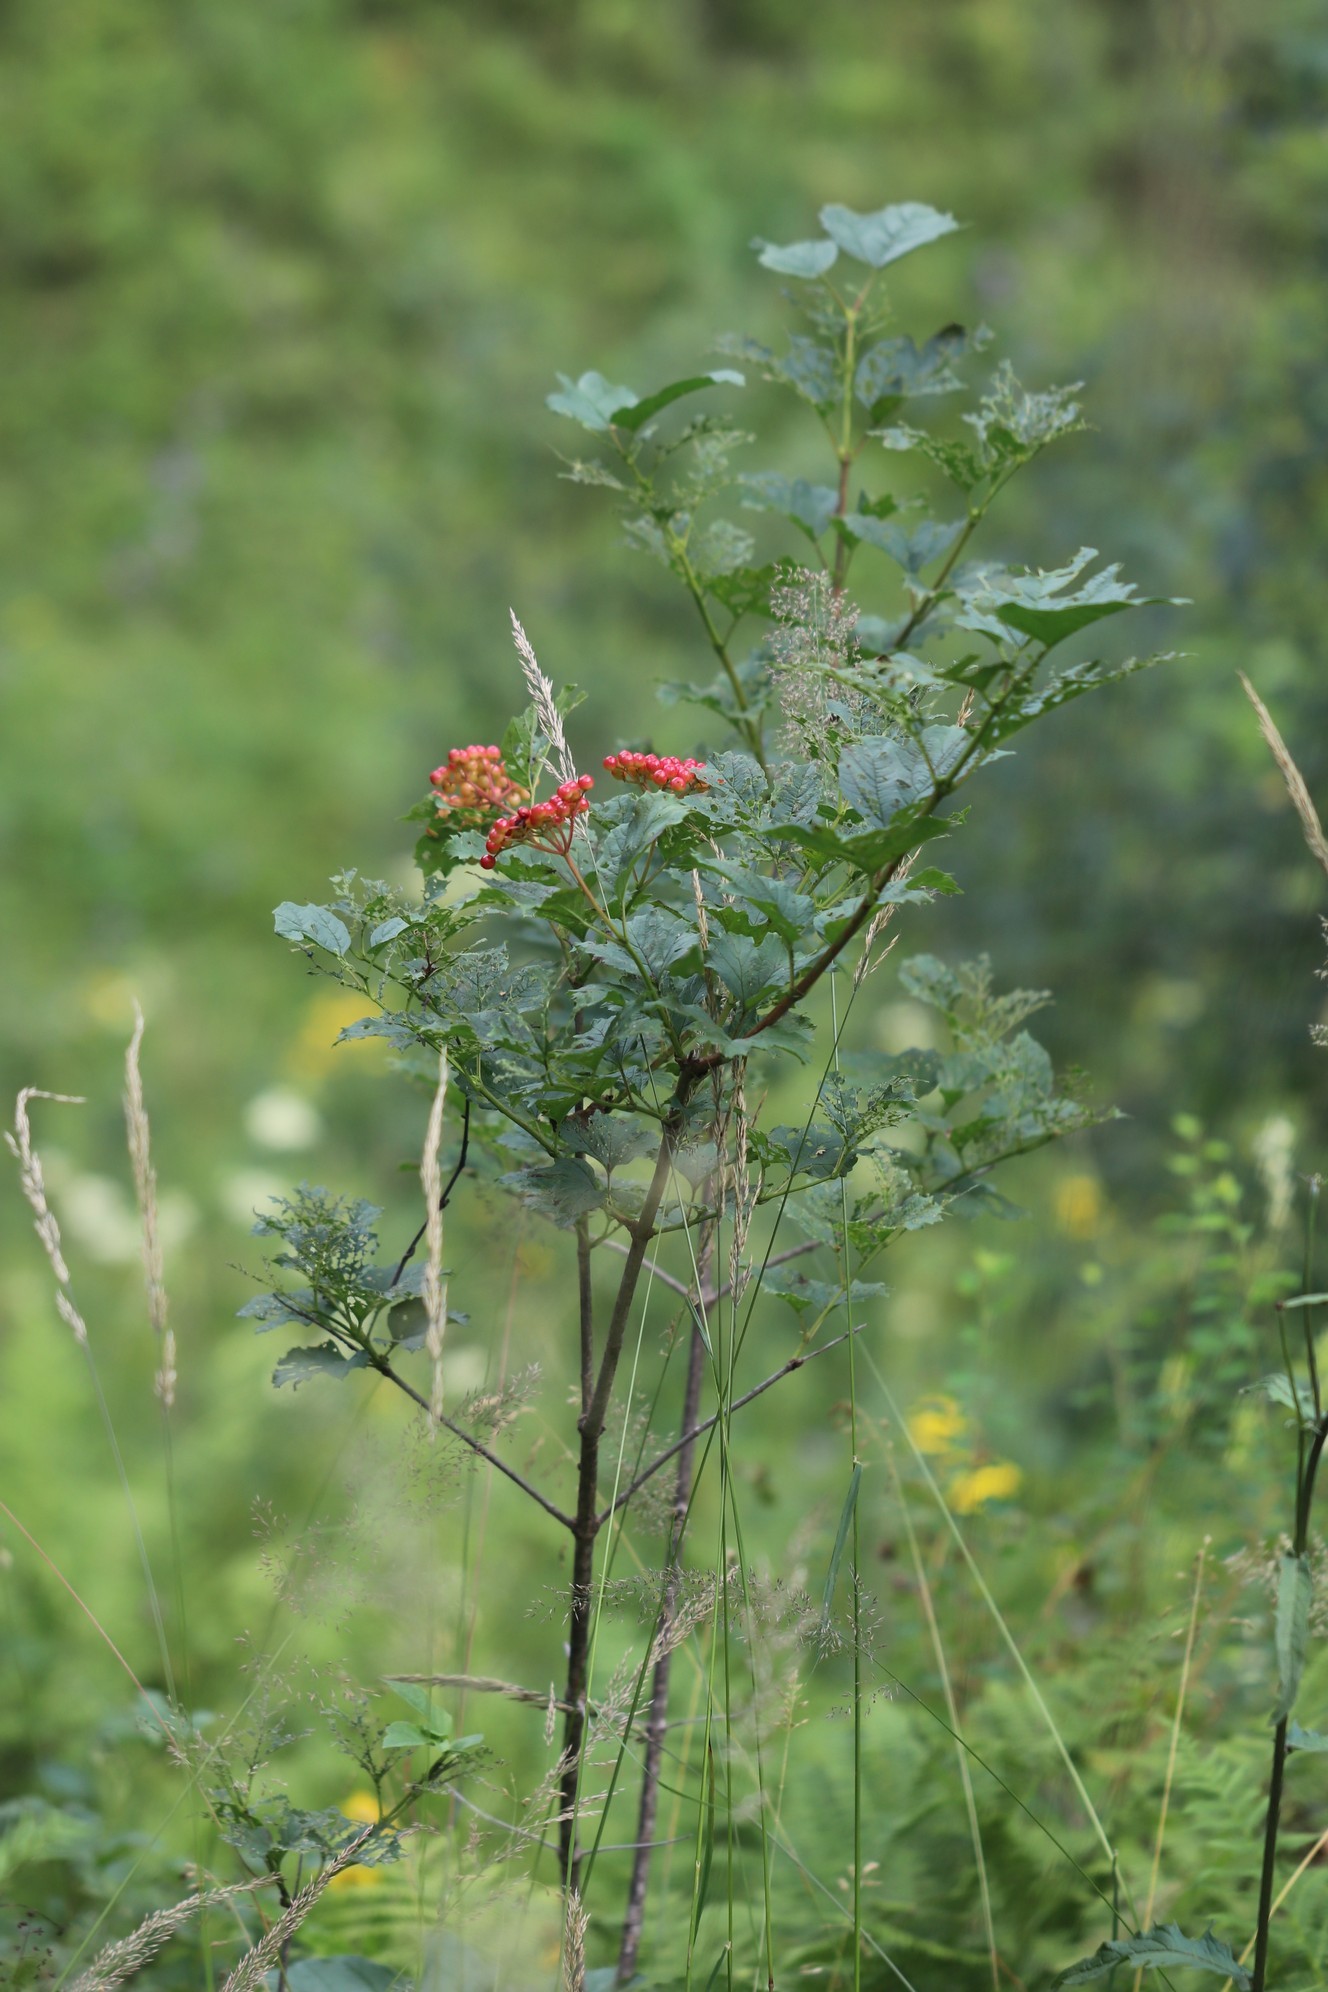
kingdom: Plantae
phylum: Tracheophyta
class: Magnoliopsida
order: Dipsacales
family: Viburnaceae
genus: Viburnum
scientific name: Viburnum opulus
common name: Guelder-rose
